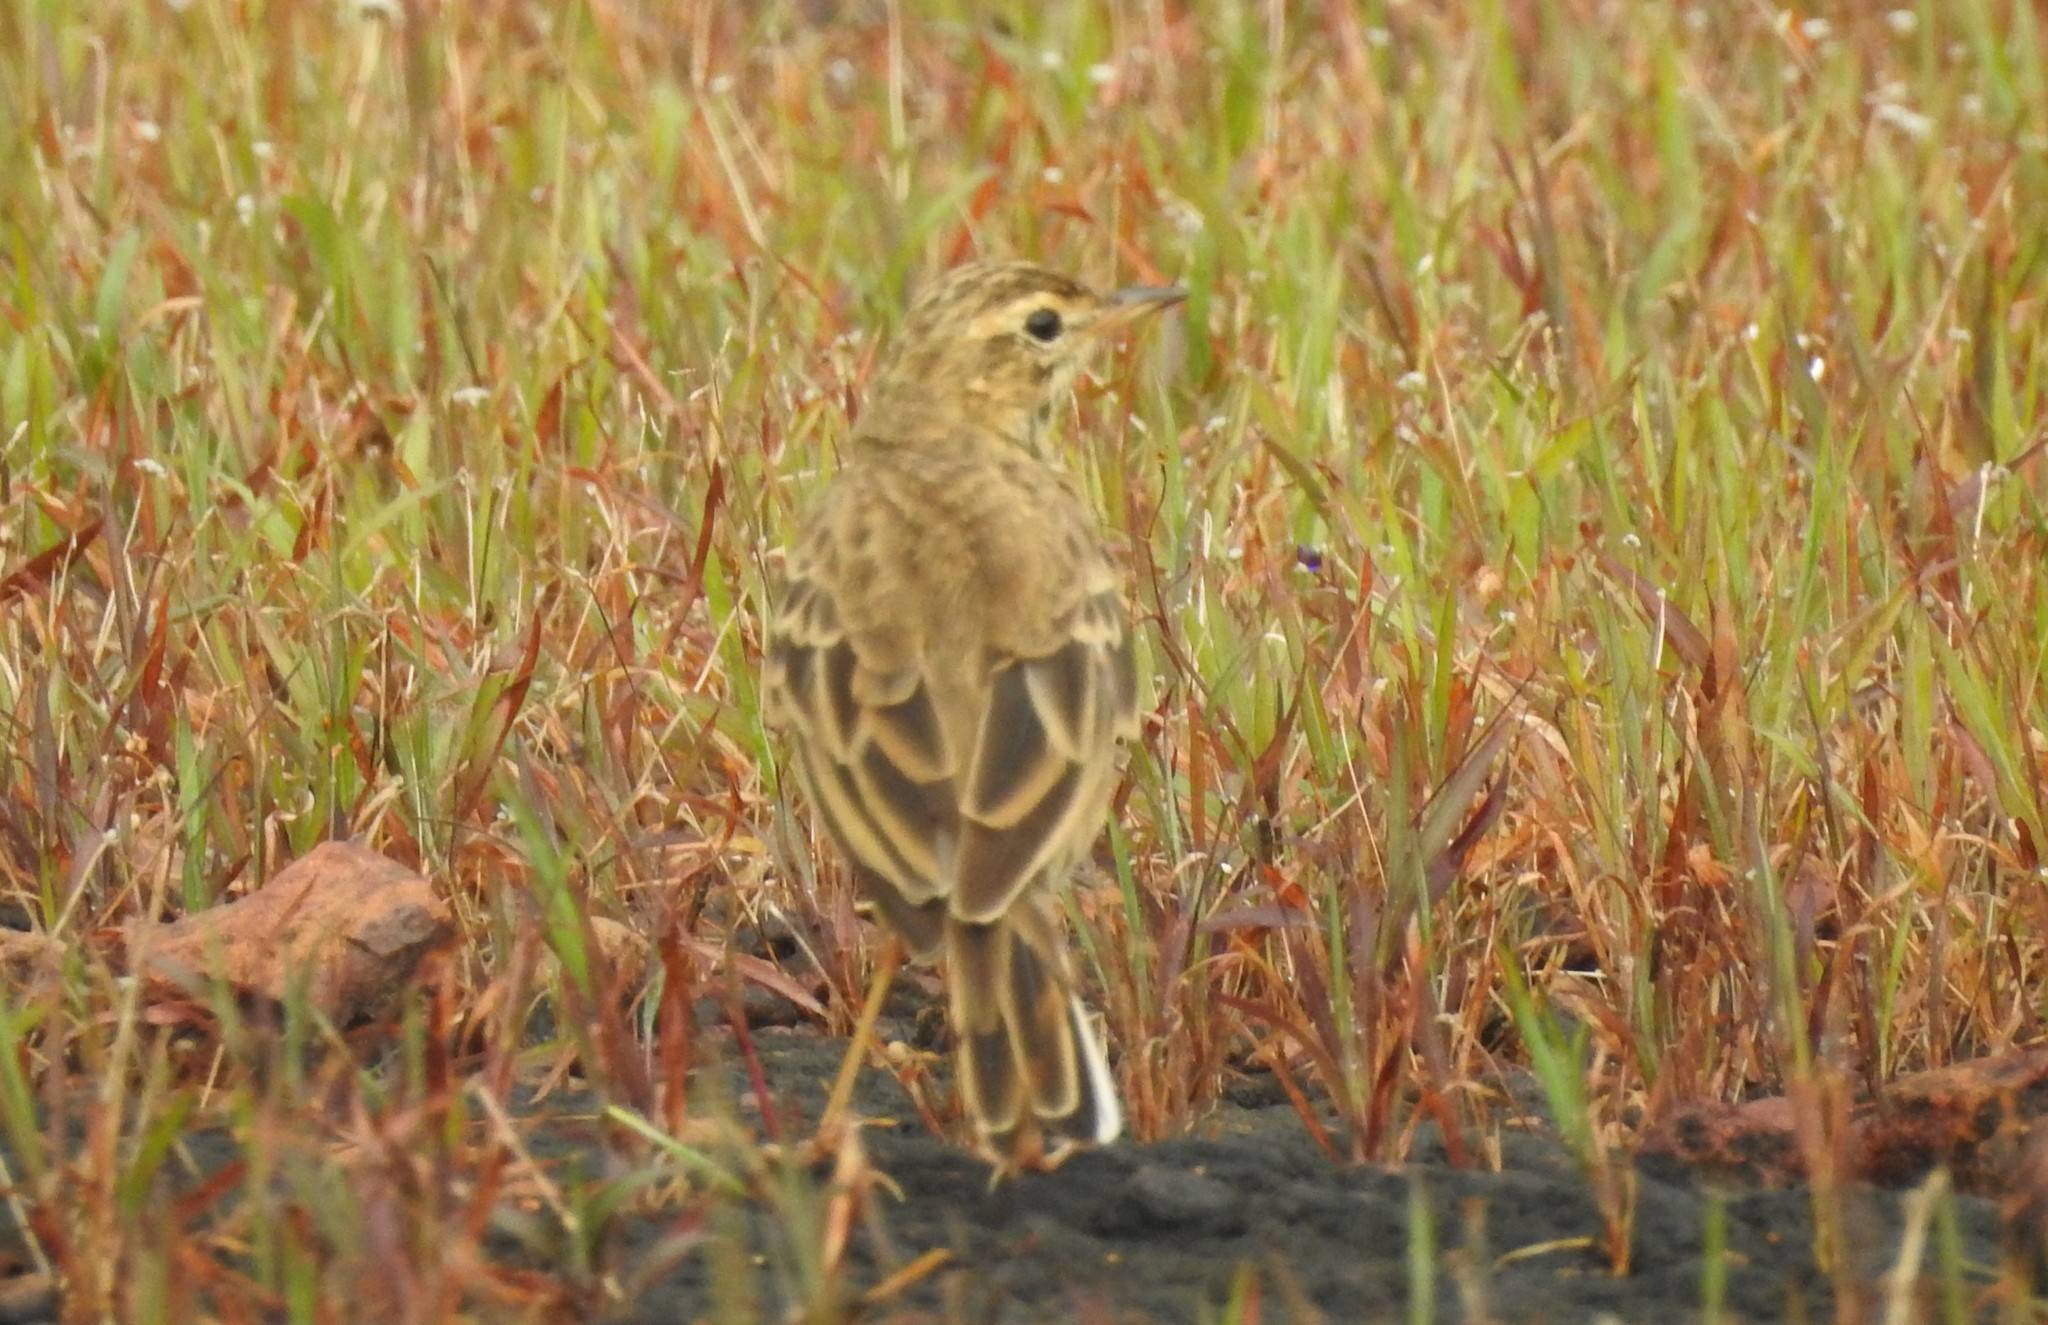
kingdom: Animalia
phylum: Chordata
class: Aves
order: Passeriformes
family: Motacillidae
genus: Anthus
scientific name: Anthus rufulus
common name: Paddyfield pipit
